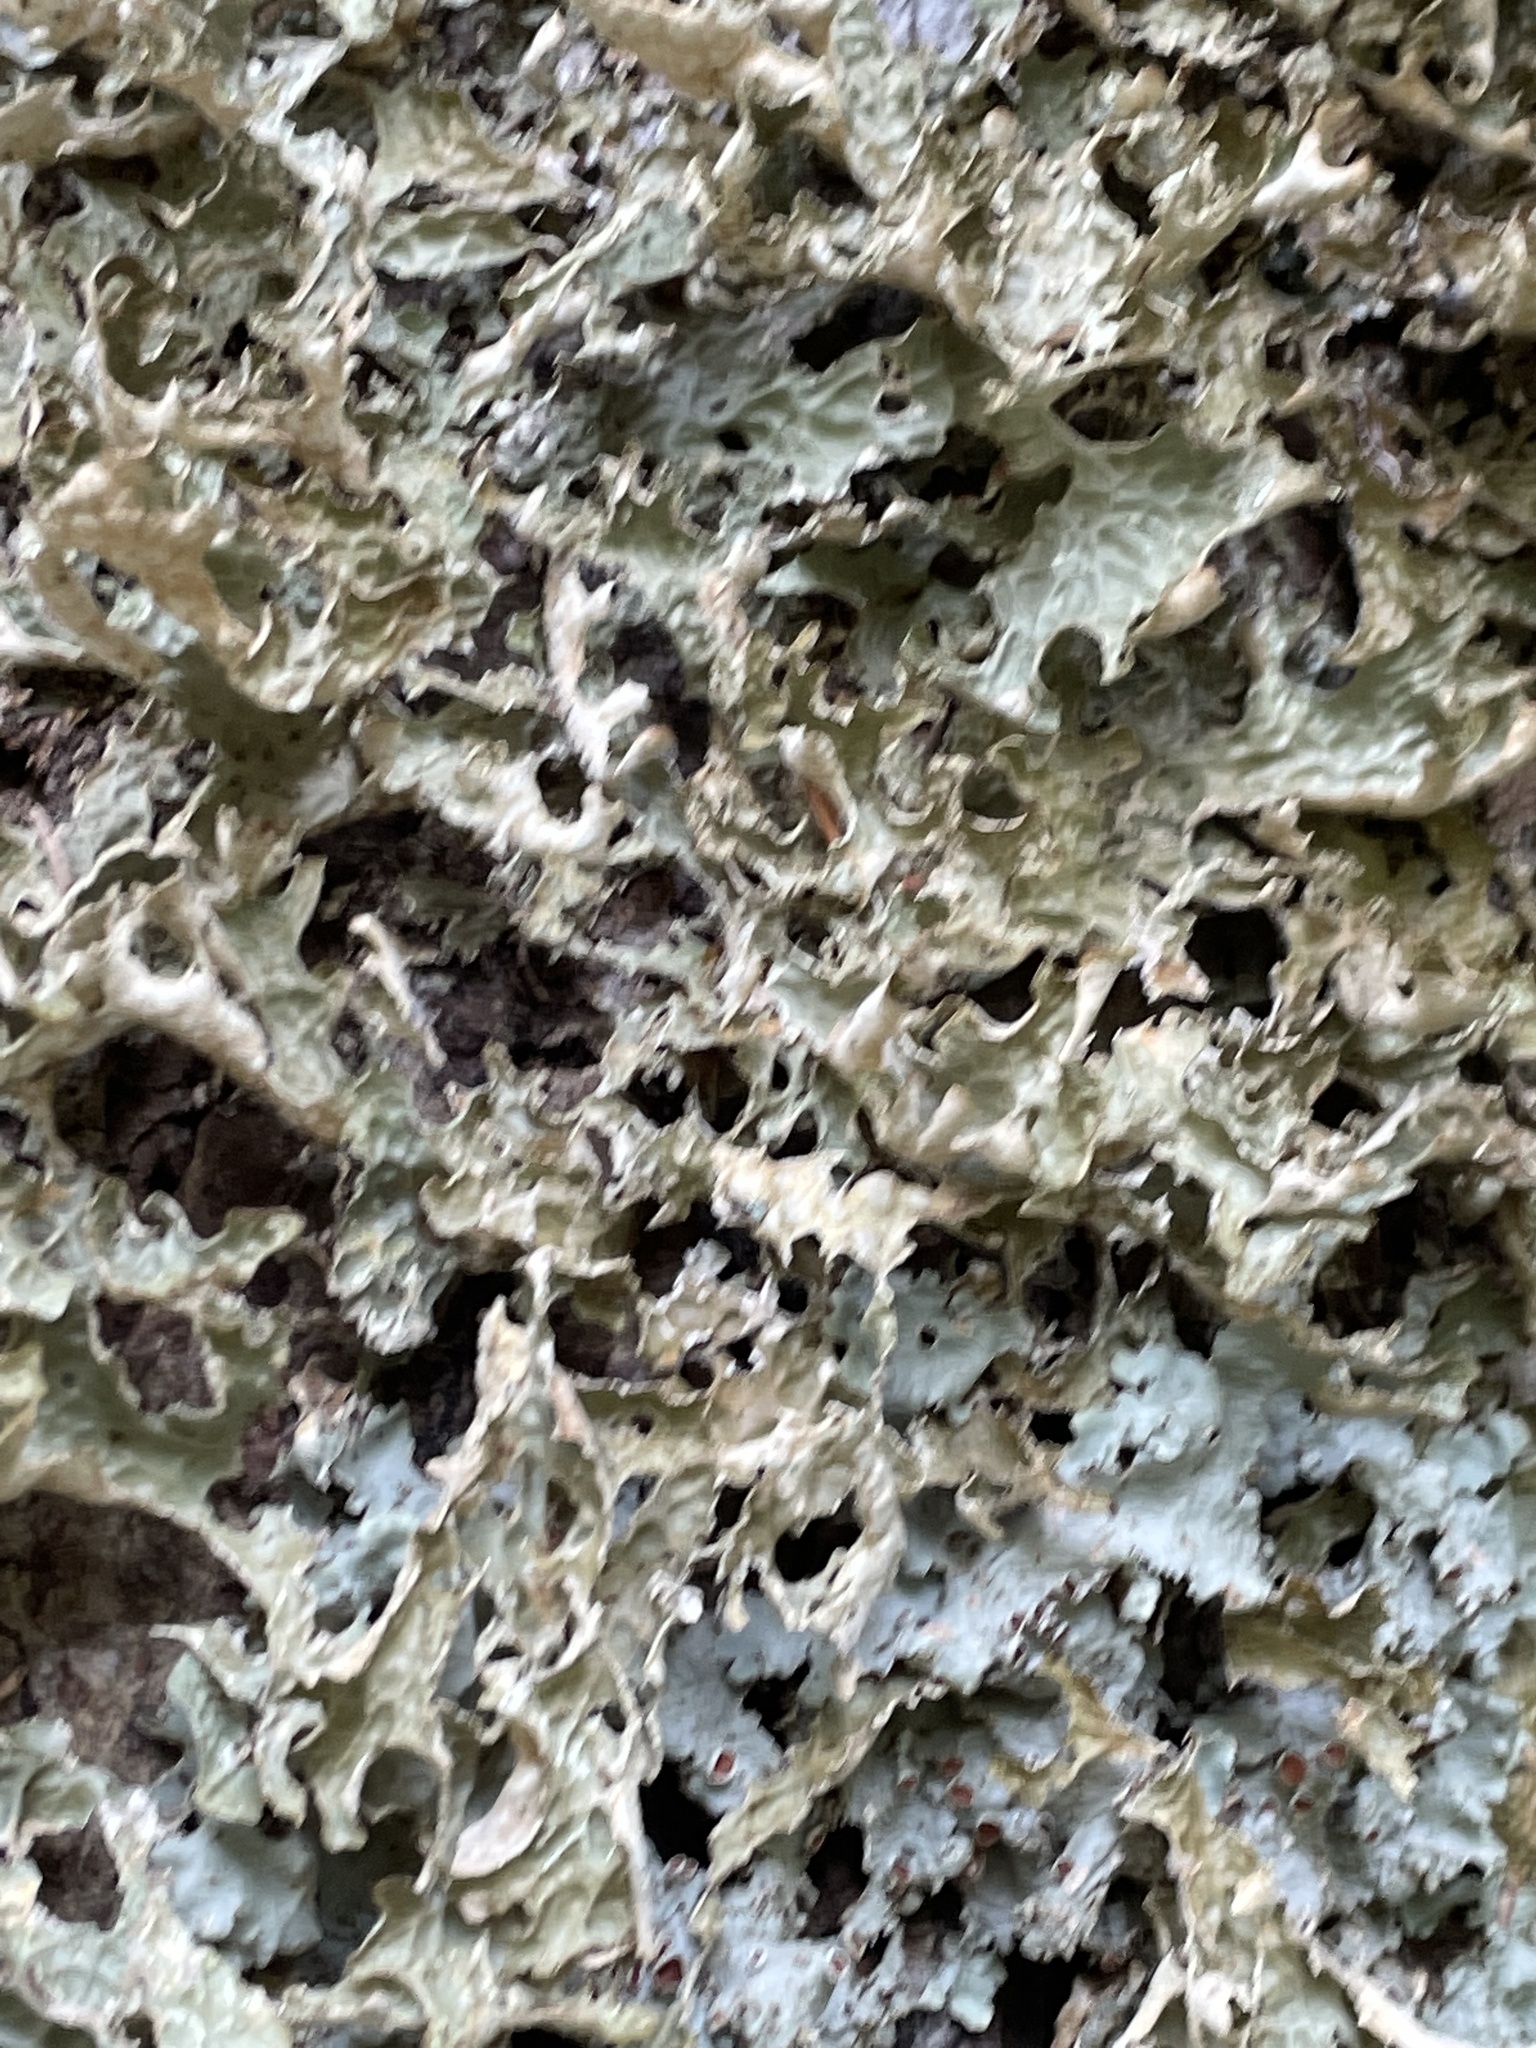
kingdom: Fungi
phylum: Ascomycota
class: Lecanoromycetes
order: Peltigerales
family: Lobariaceae
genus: Lobaria
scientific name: Lobaria pulmonaria
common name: Lungwort
